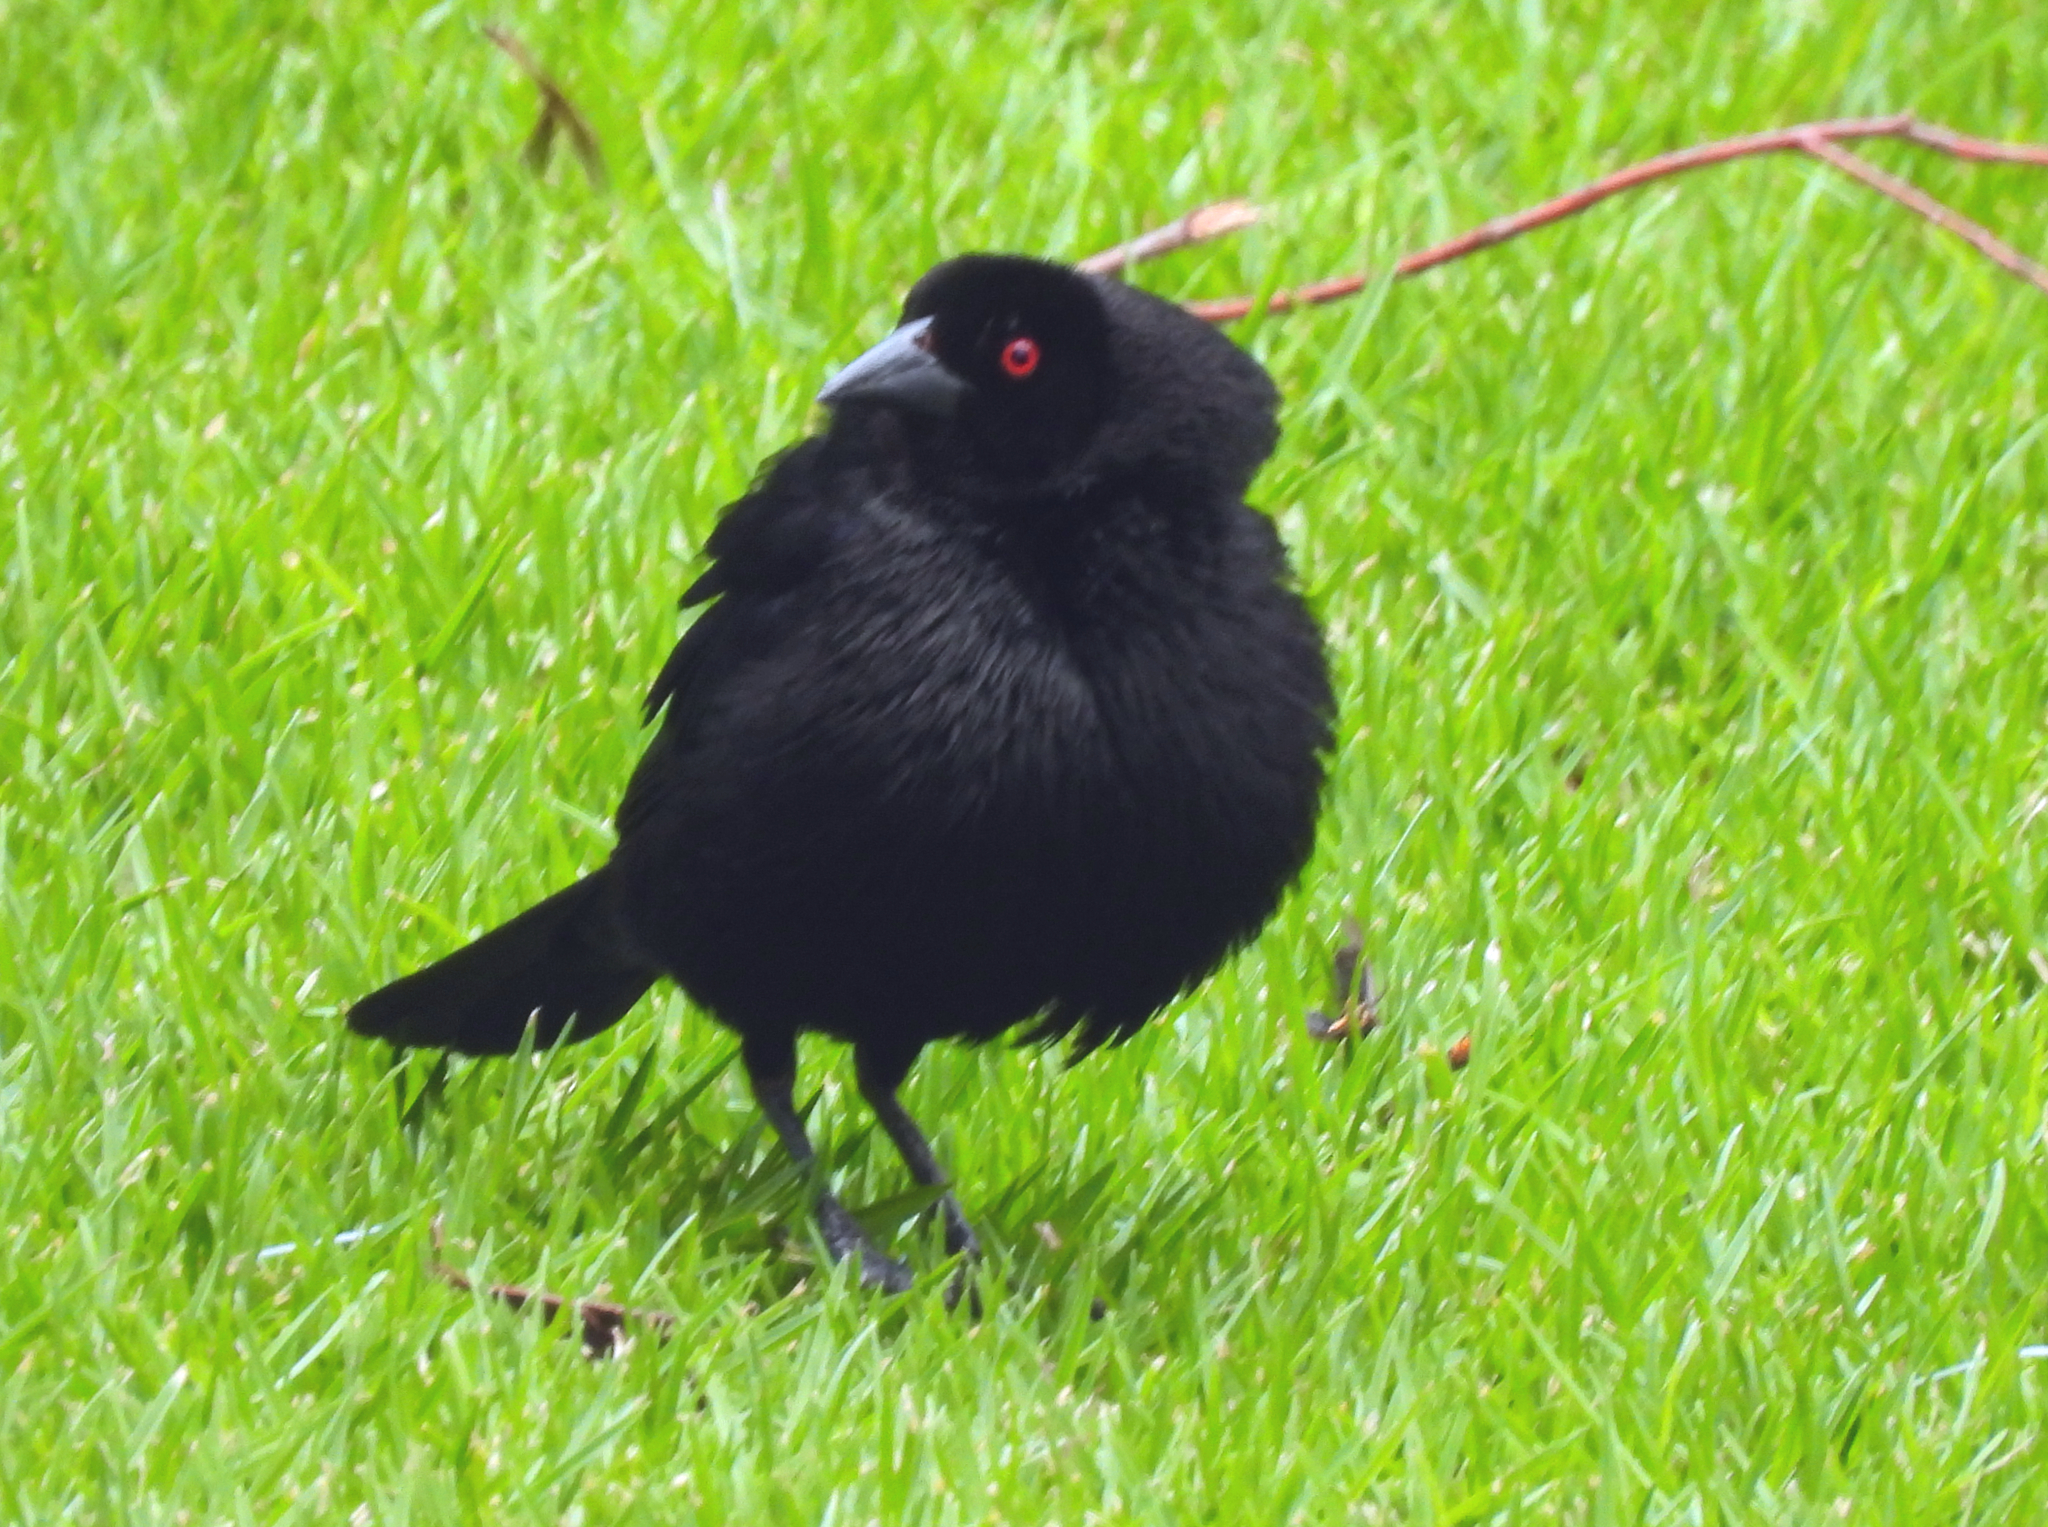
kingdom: Animalia
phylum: Chordata
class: Aves
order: Passeriformes
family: Icteridae
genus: Molothrus
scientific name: Molothrus aeneus
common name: Bronzed cowbird
